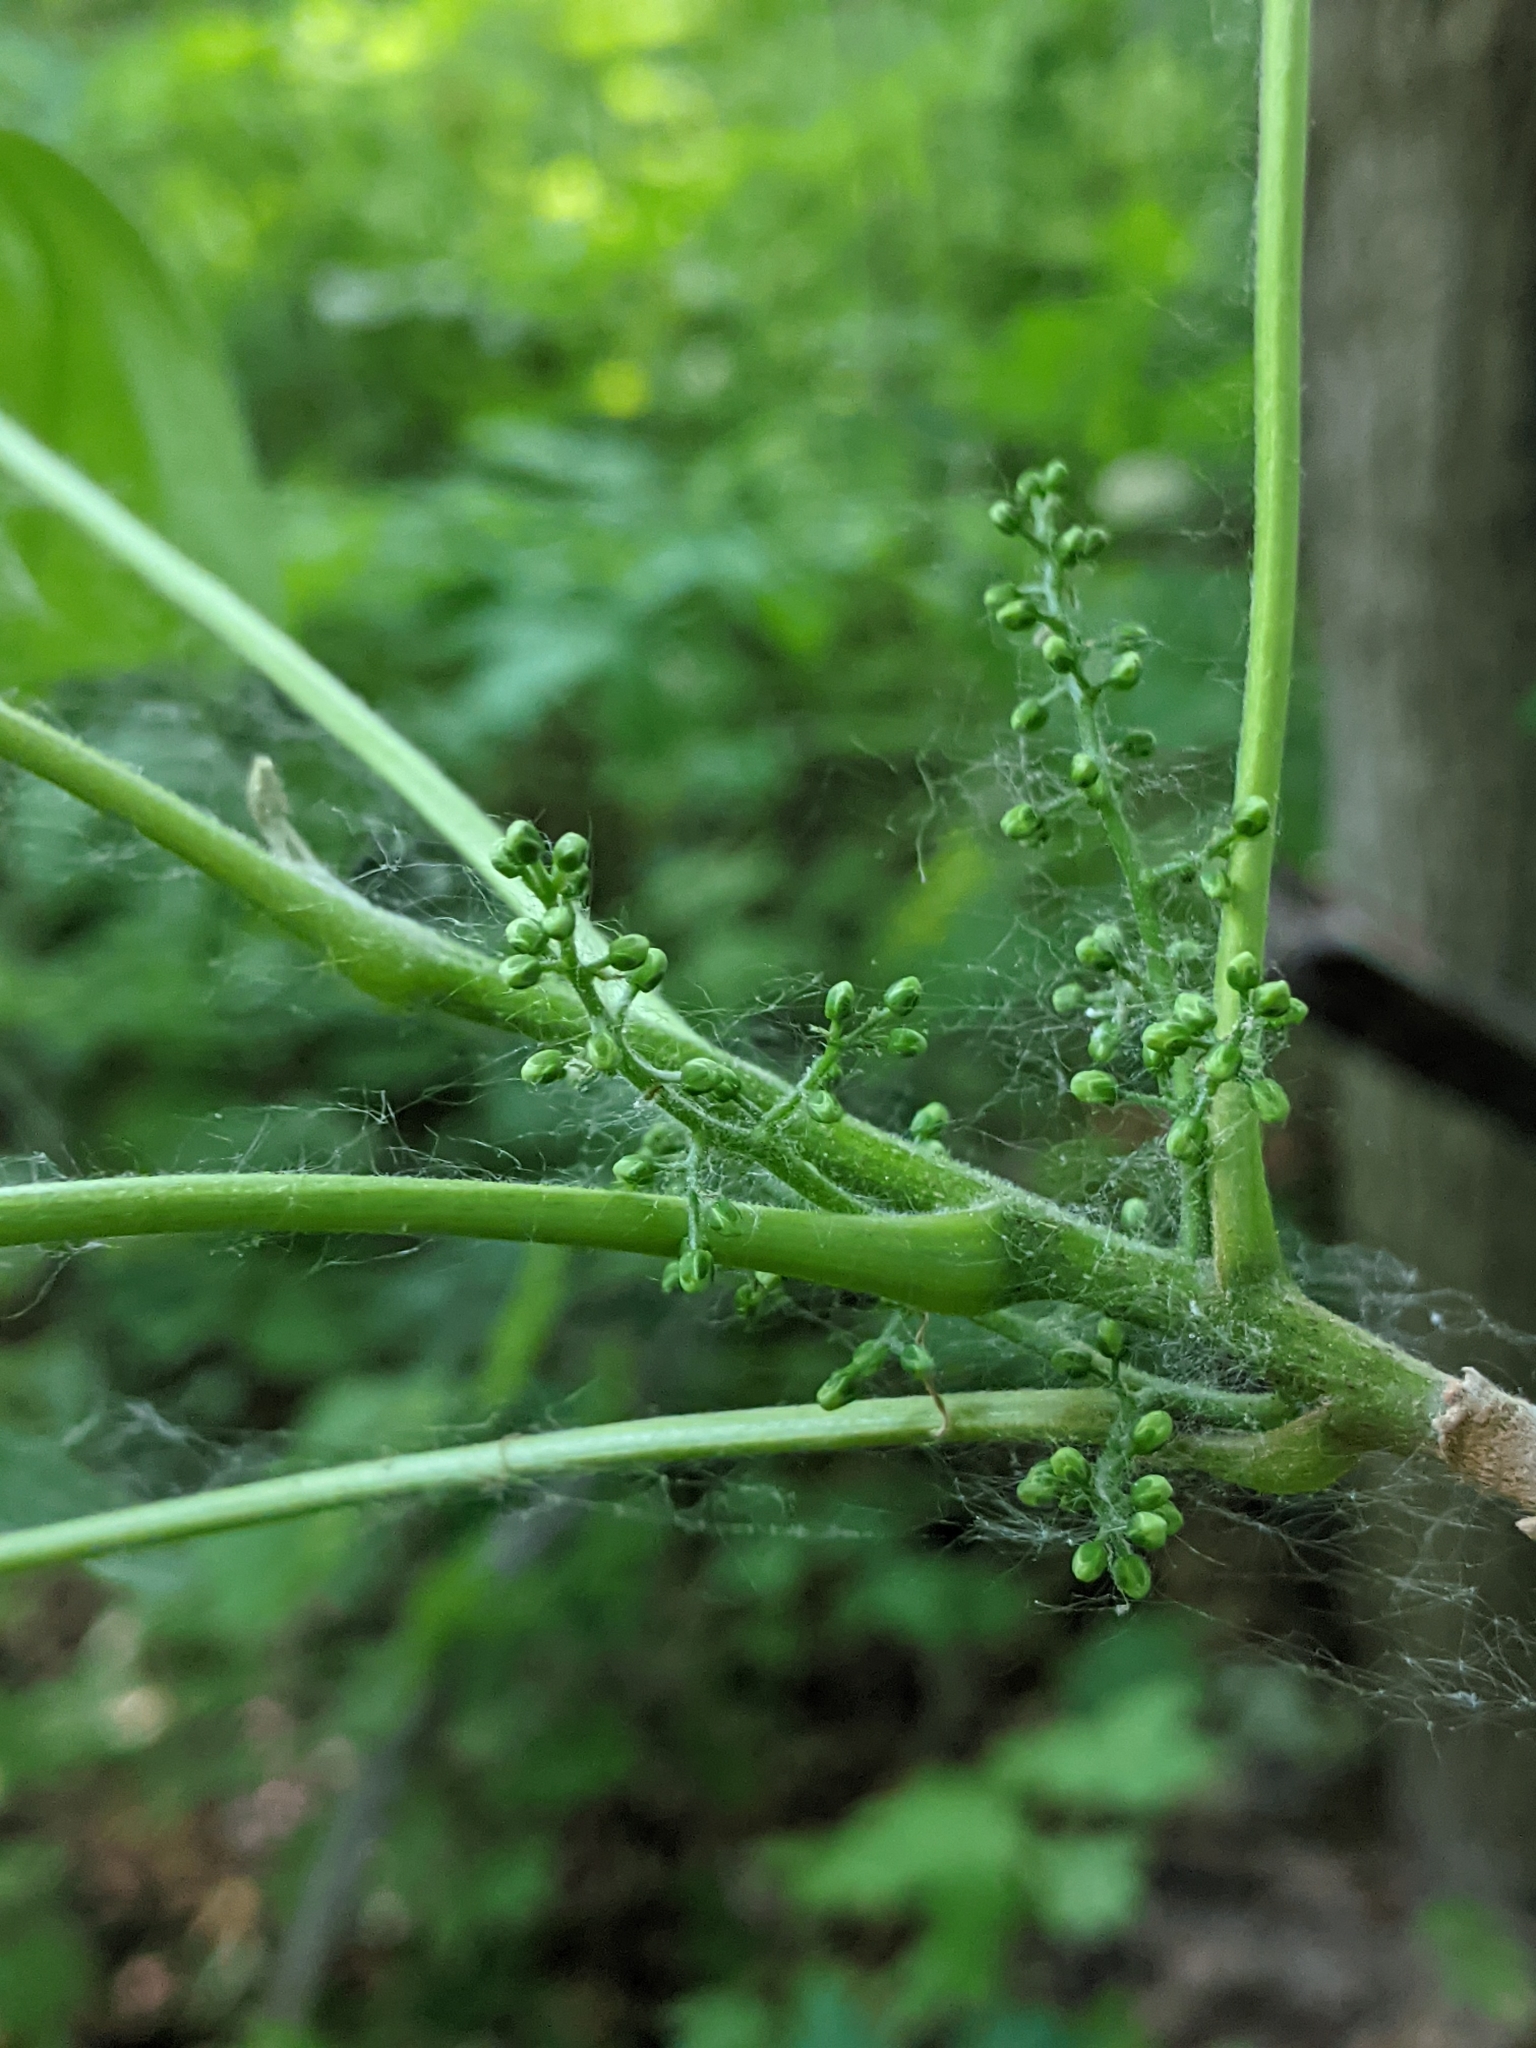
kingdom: Plantae
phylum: Tracheophyta
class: Magnoliopsida
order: Sapindales
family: Anacardiaceae
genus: Toxicodendron
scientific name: Toxicodendron radicans
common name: Poison ivy
